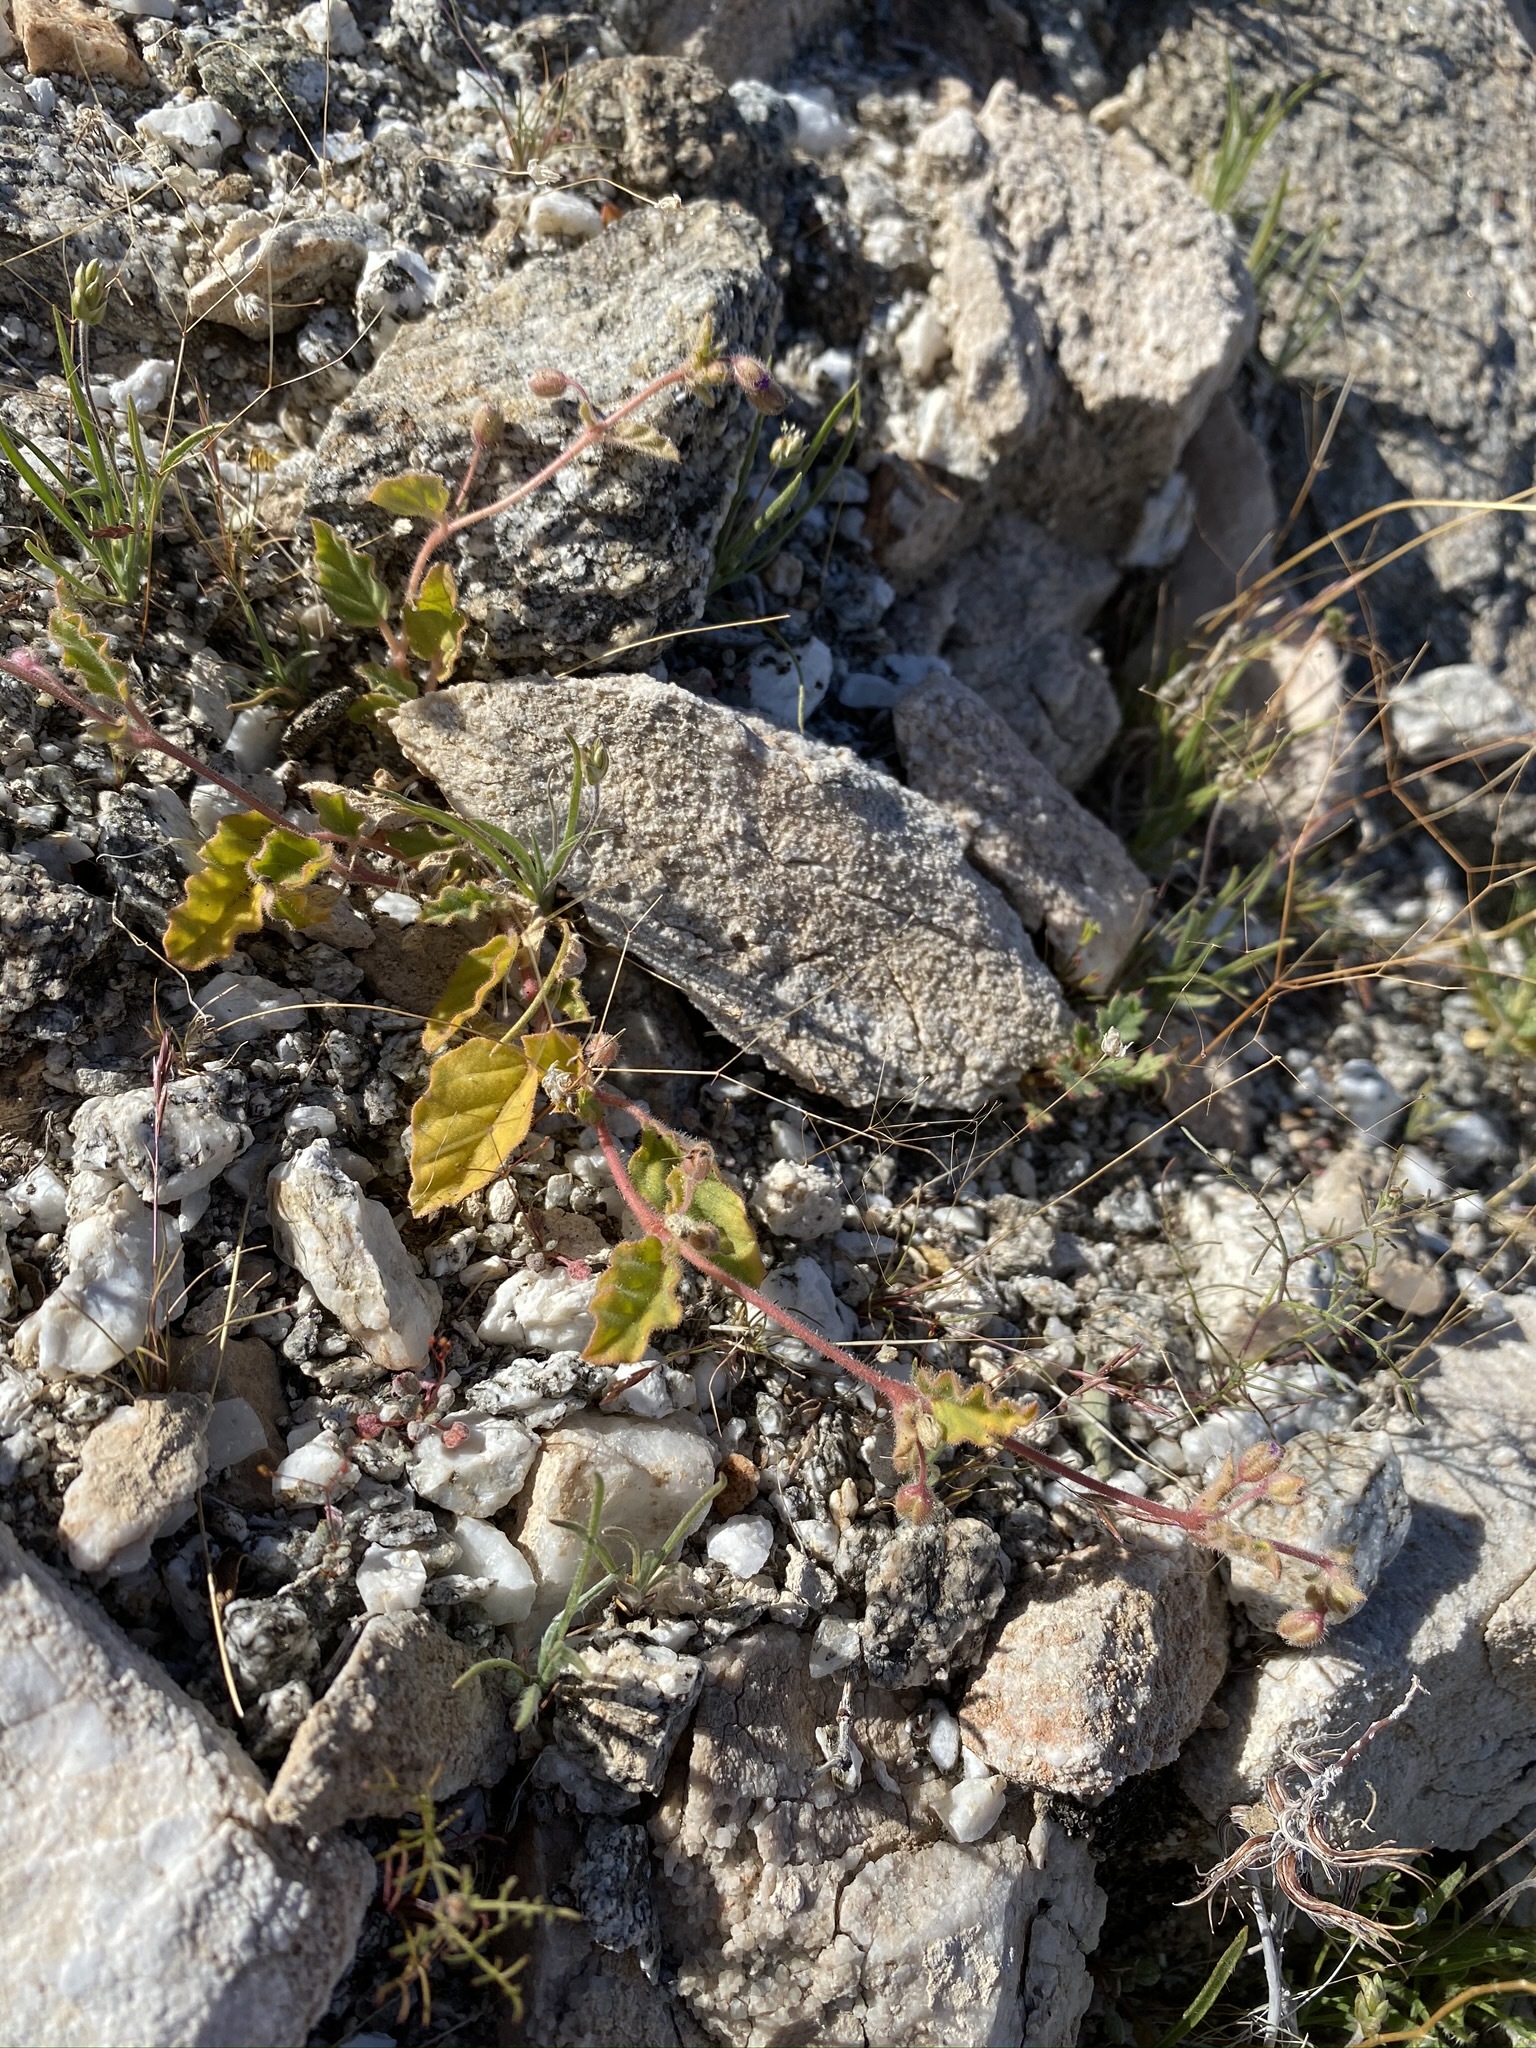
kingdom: Plantae
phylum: Tracheophyta
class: Magnoliopsida
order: Caryophyllales
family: Nyctaginaceae
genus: Allionia
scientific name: Allionia incarnata
